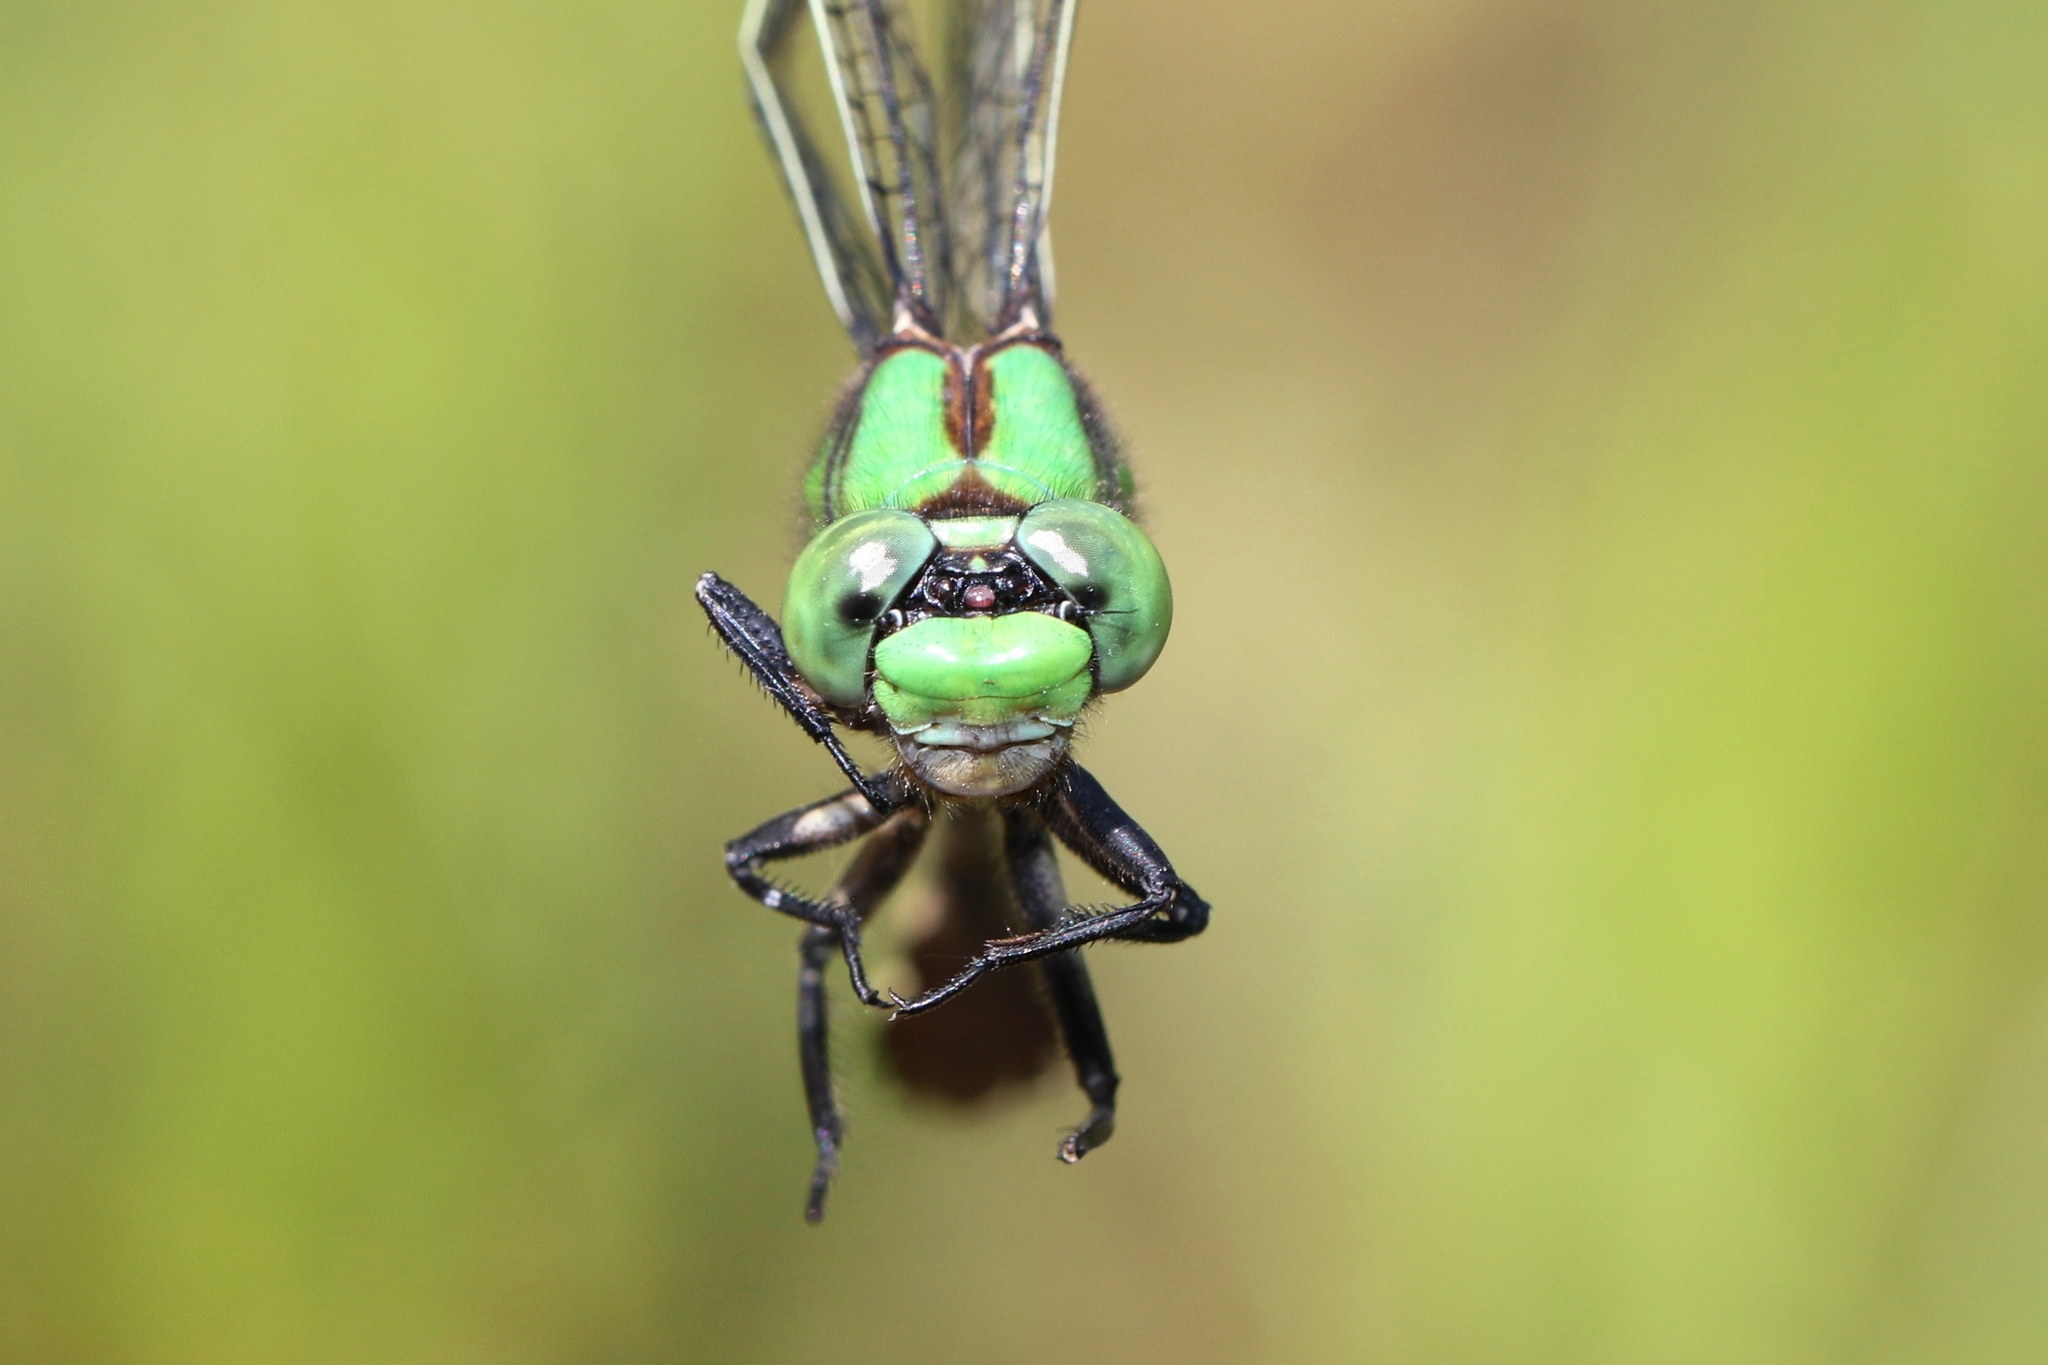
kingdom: Animalia
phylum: Arthropoda
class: Insecta
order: Odonata
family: Gomphidae
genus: Ophiogomphus
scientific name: Ophiogomphus aspersus
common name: Brook snaketail
